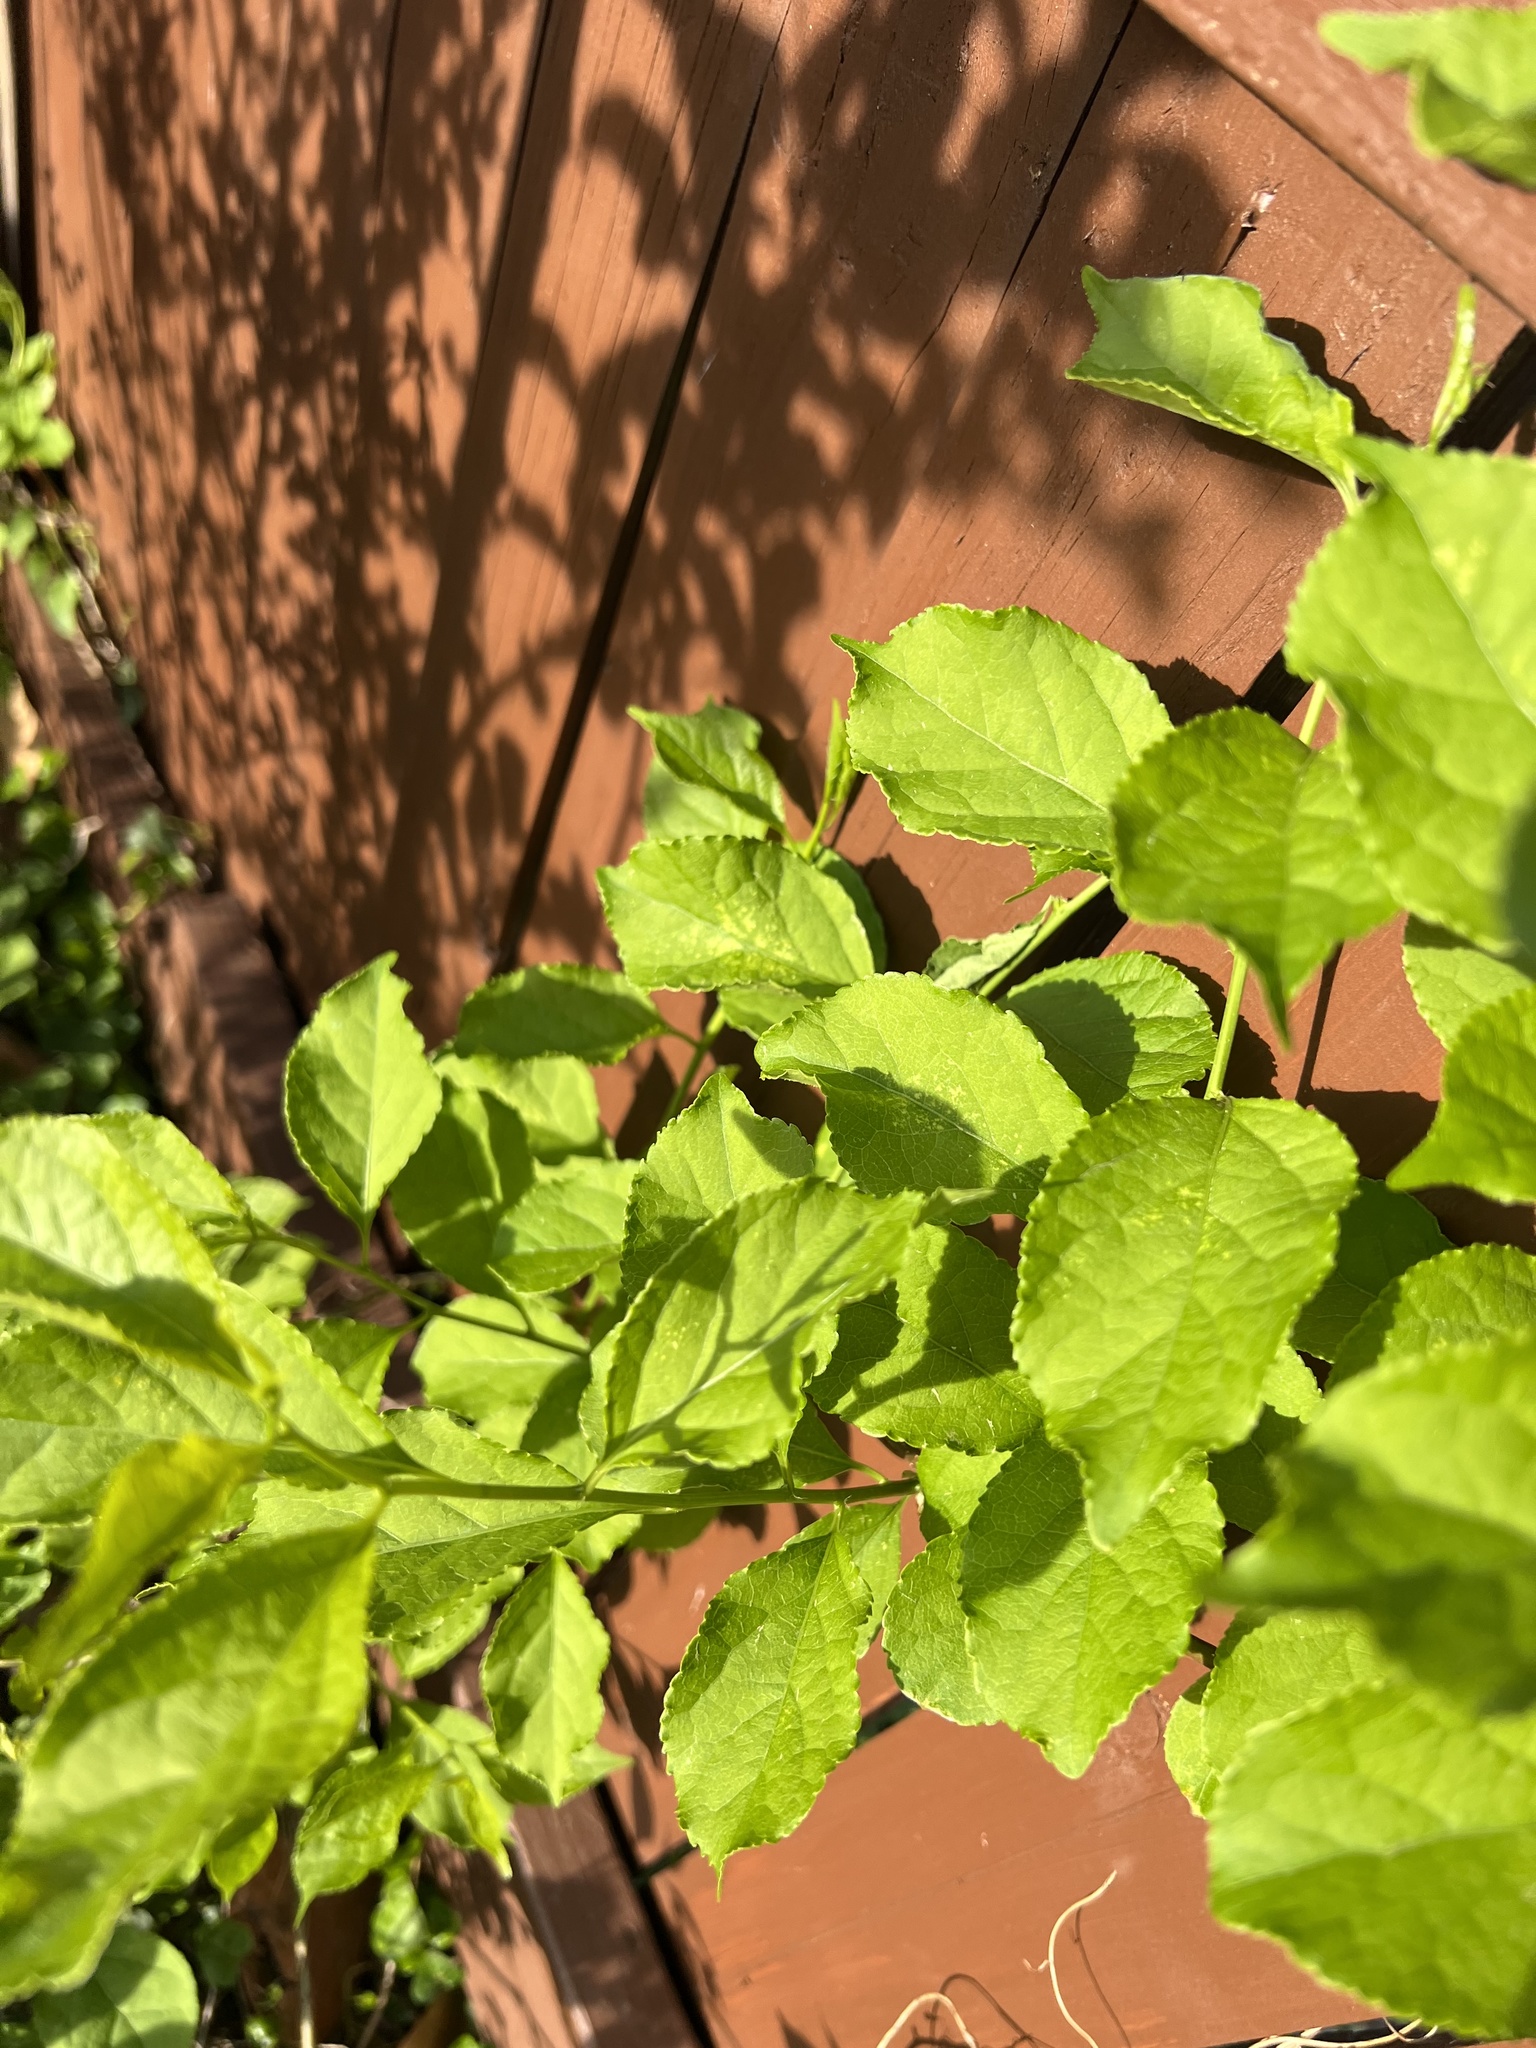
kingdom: Plantae
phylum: Tracheophyta
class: Magnoliopsida
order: Celastrales
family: Celastraceae
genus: Celastrus
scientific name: Celastrus orbiculatus
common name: Oriental bittersweet
